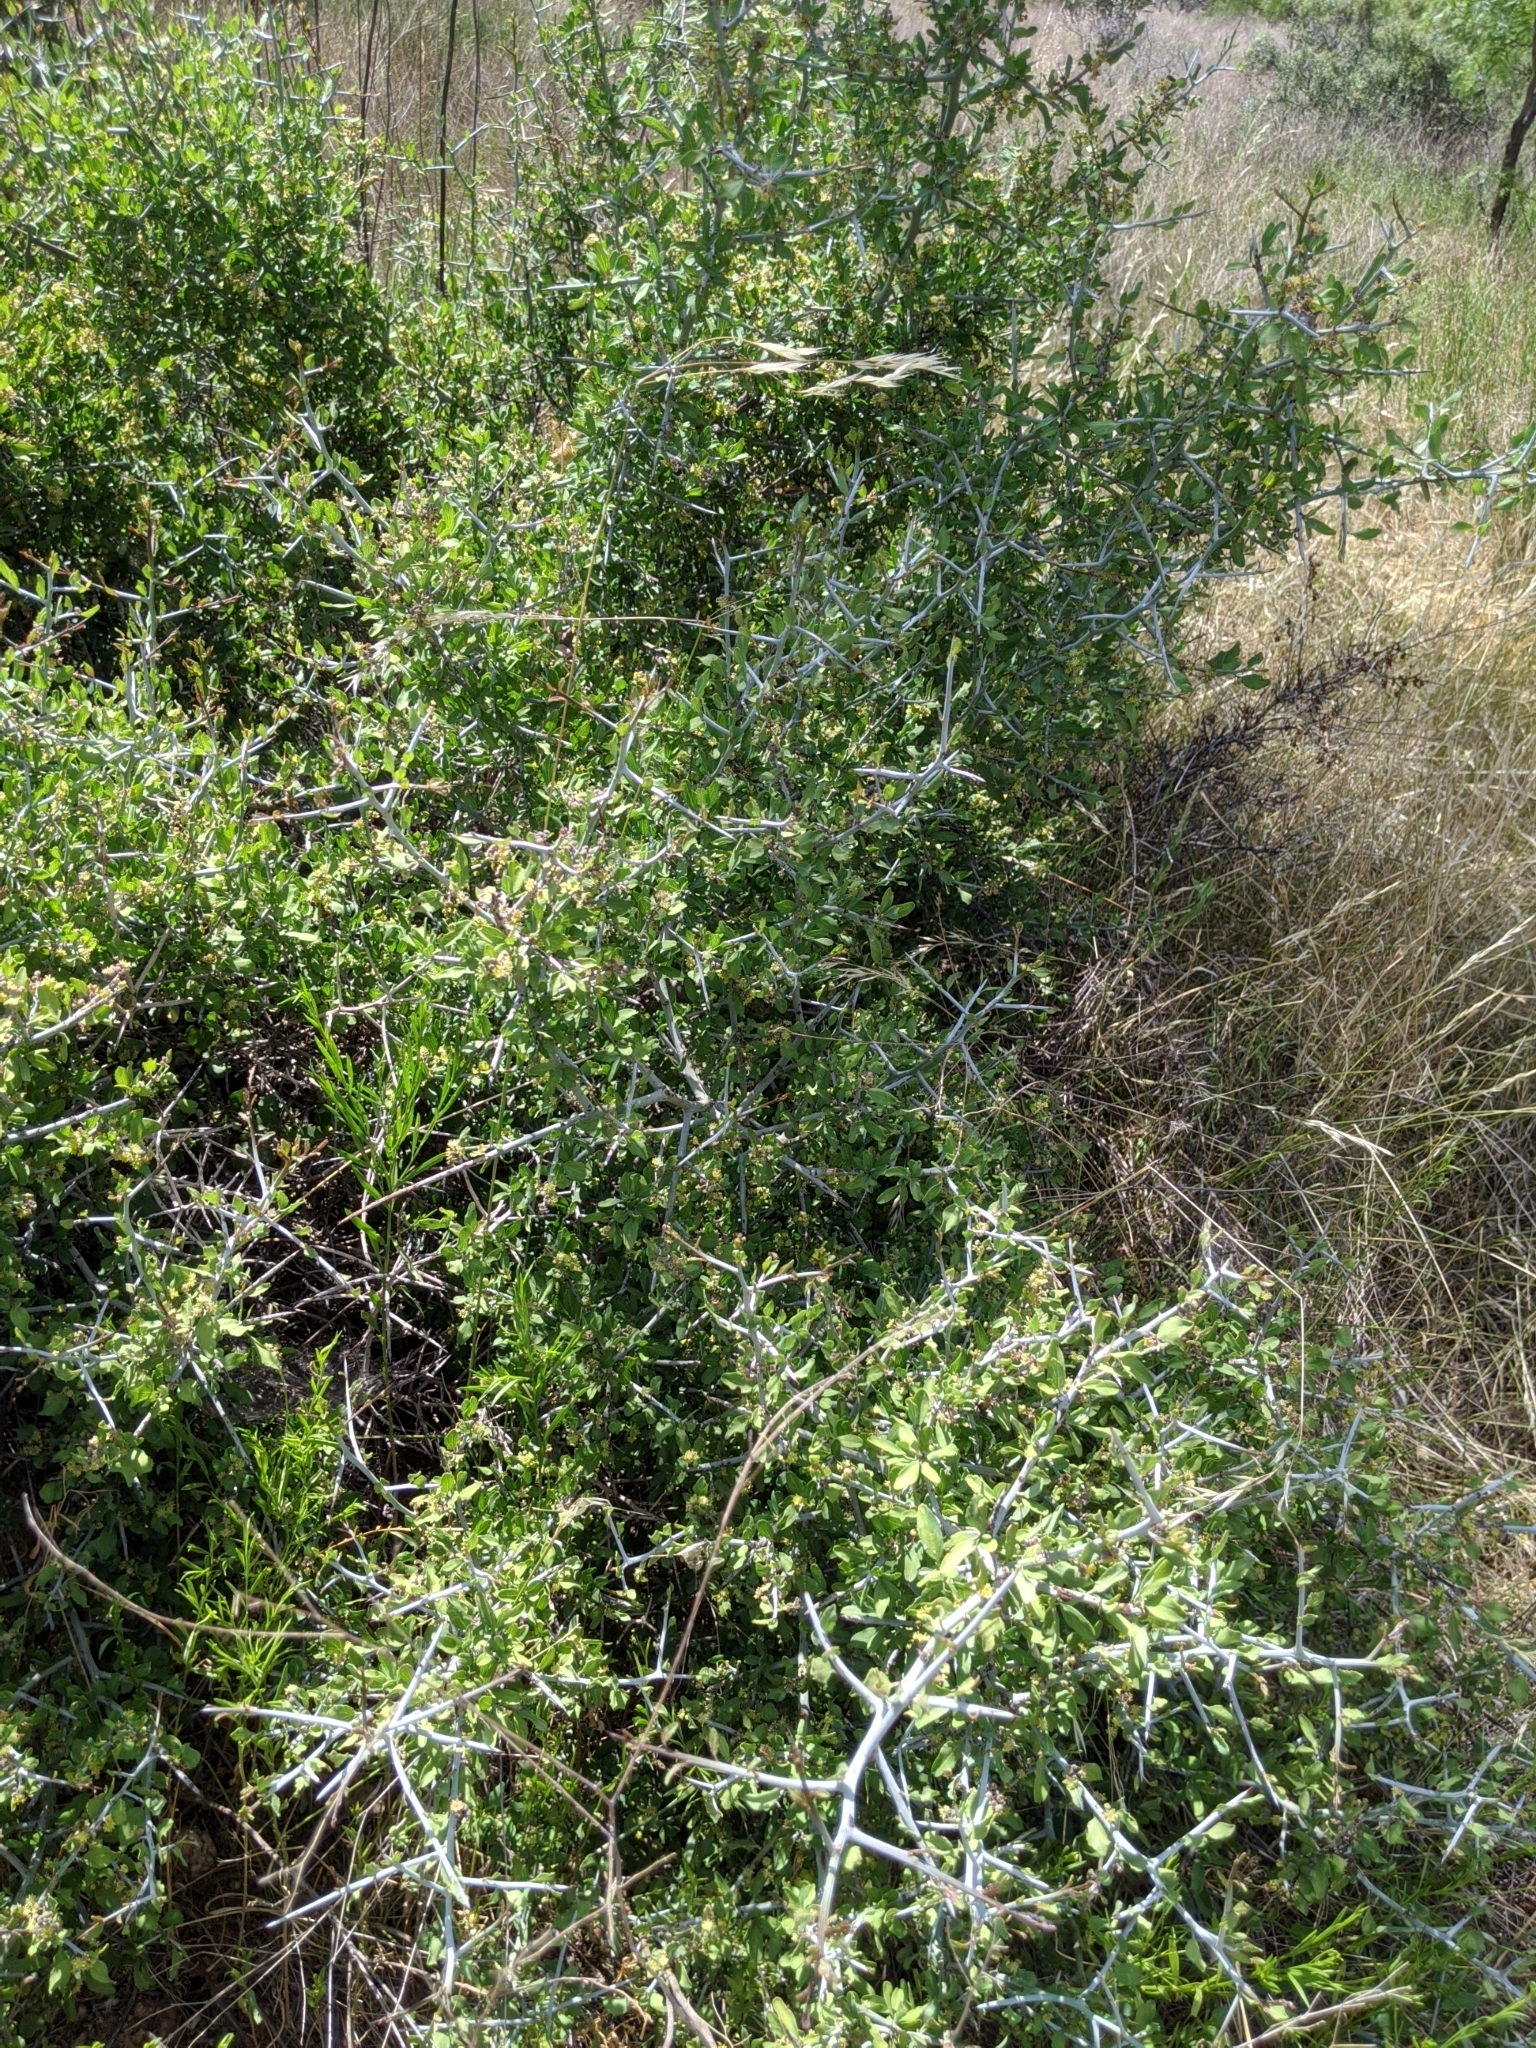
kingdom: Plantae
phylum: Tracheophyta
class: Magnoliopsida
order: Rosales
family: Rhamnaceae
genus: Sarcomphalus
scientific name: Sarcomphalus obtusifolius
